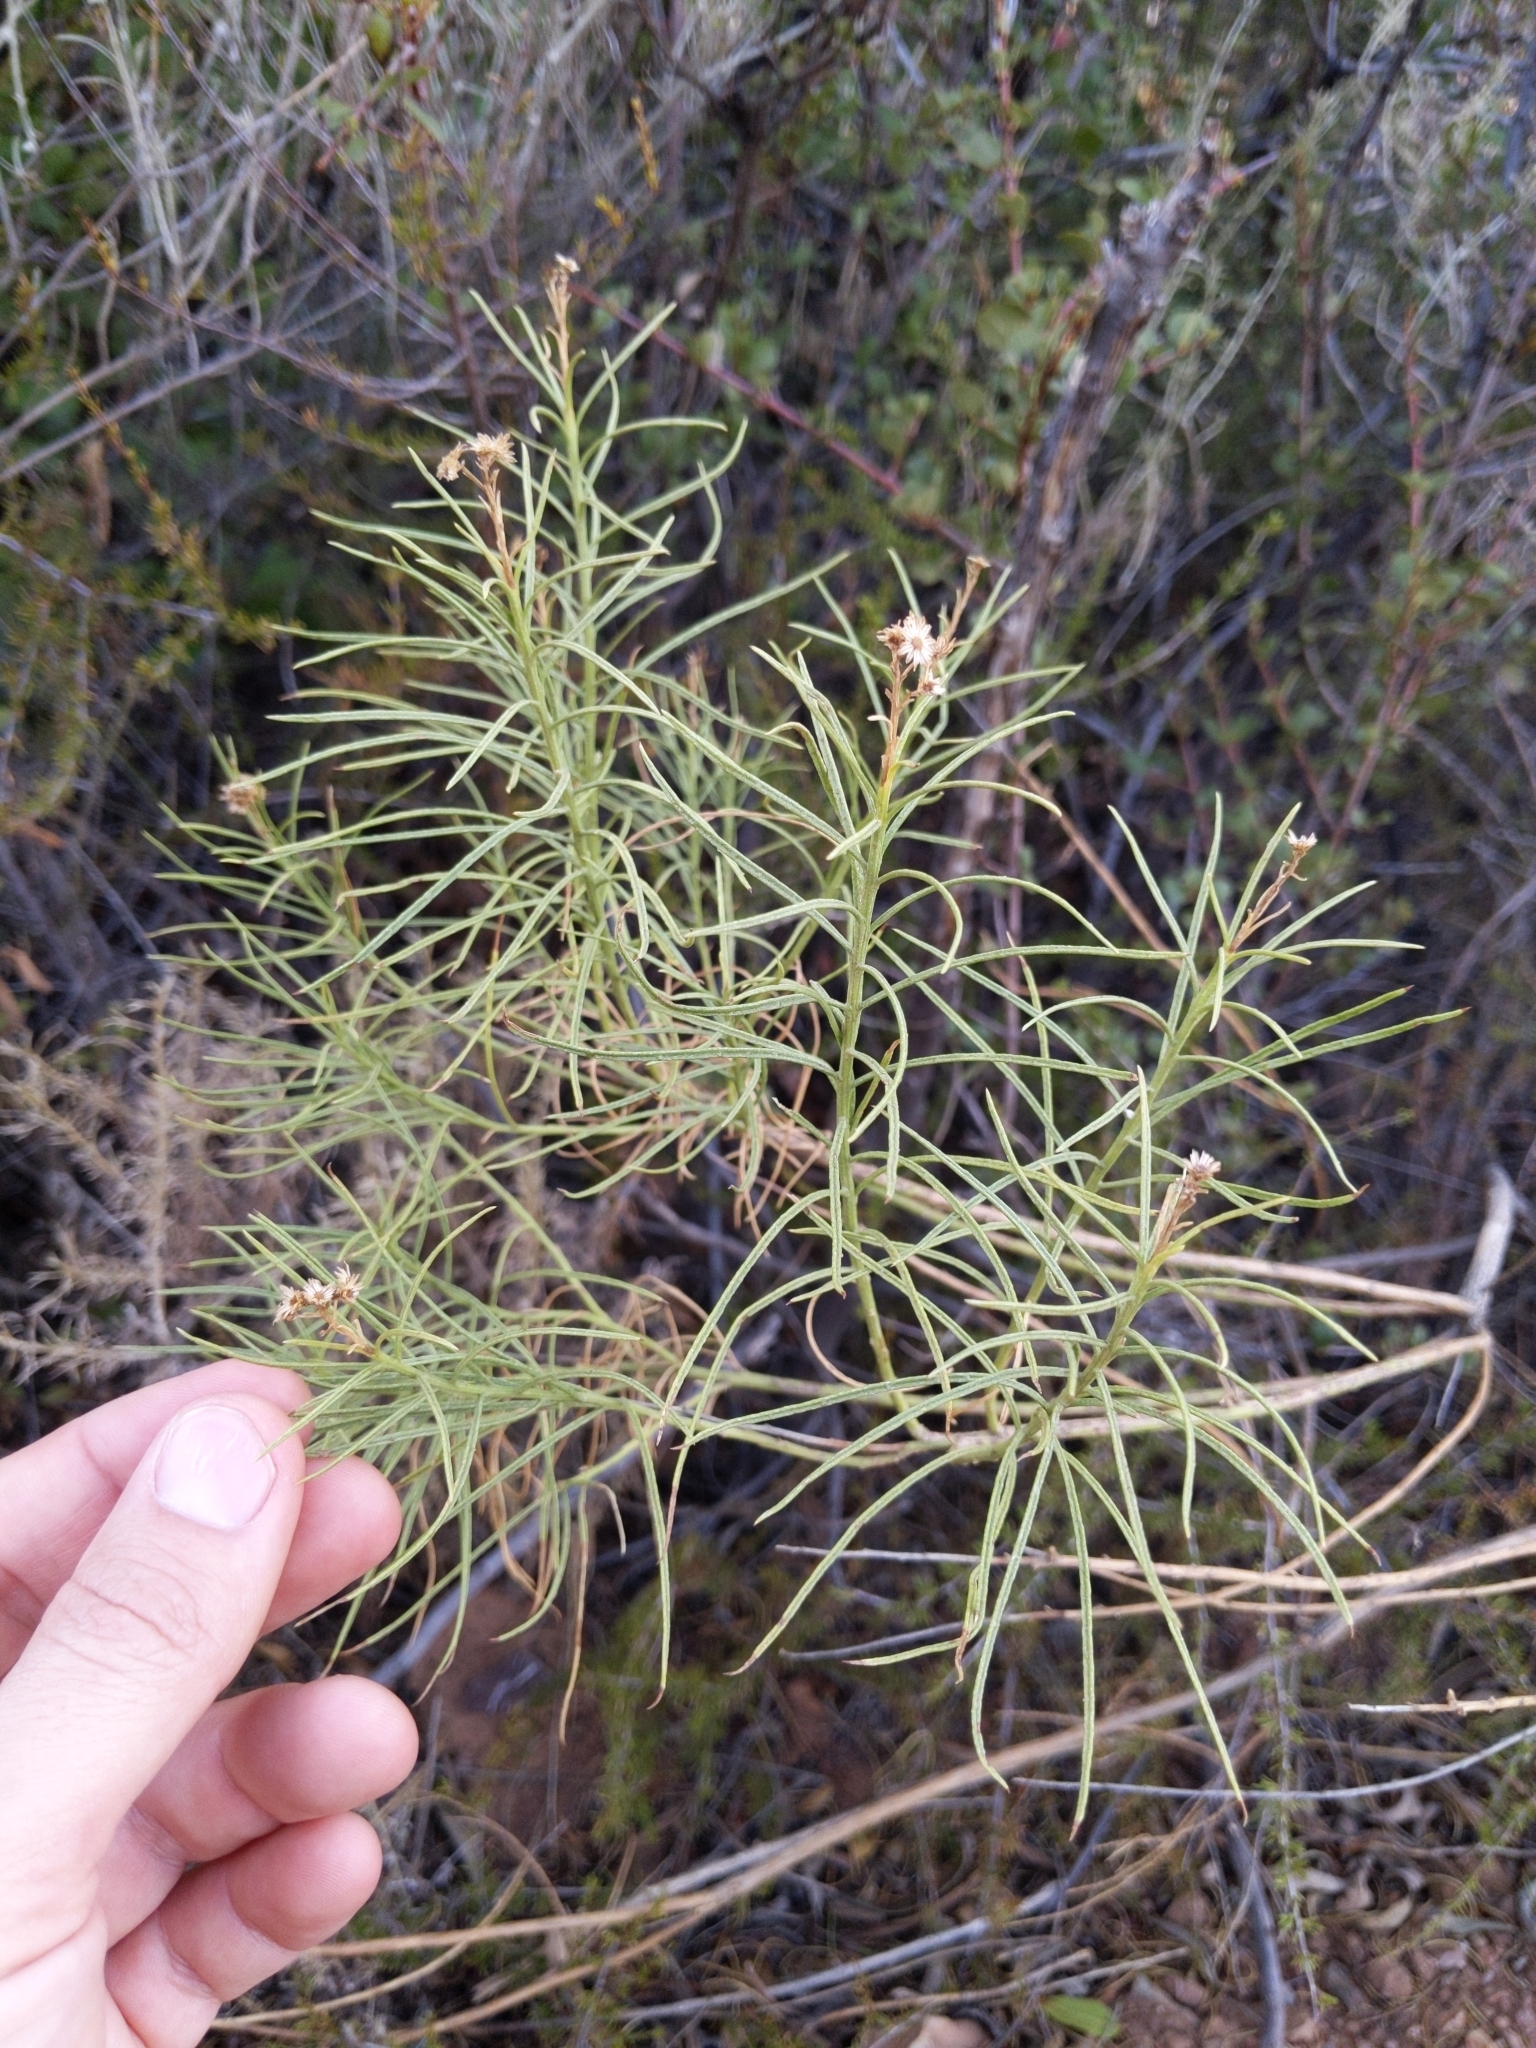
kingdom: Plantae
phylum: Tracheophyta
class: Magnoliopsida
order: Asterales
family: Asteraceae
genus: Ericameria
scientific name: Ericameria arborescens
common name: Goldenfleece
